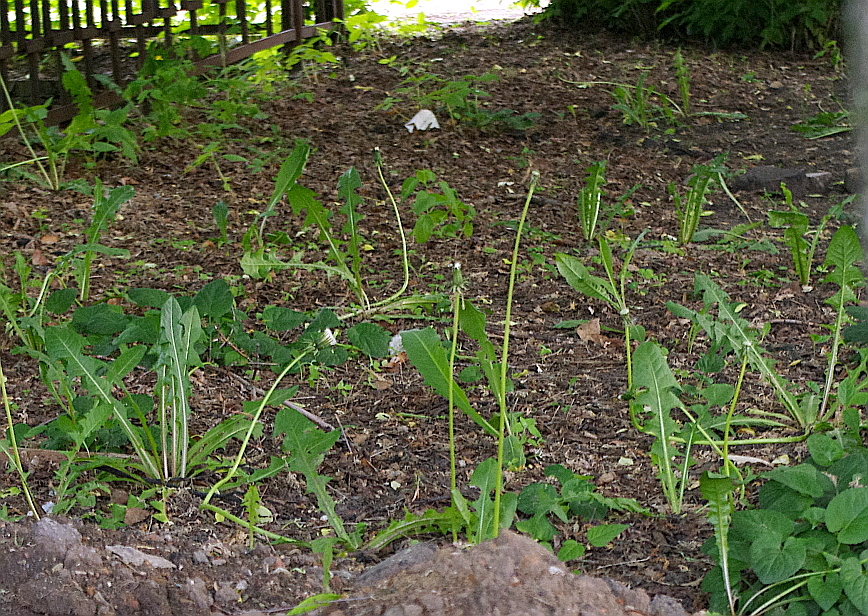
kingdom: Plantae
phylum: Tracheophyta
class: Magnoliopsida
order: Asterales
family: Asteraceae
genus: Taraxacum
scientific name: Taraxacum officinale
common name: Common dandelion
